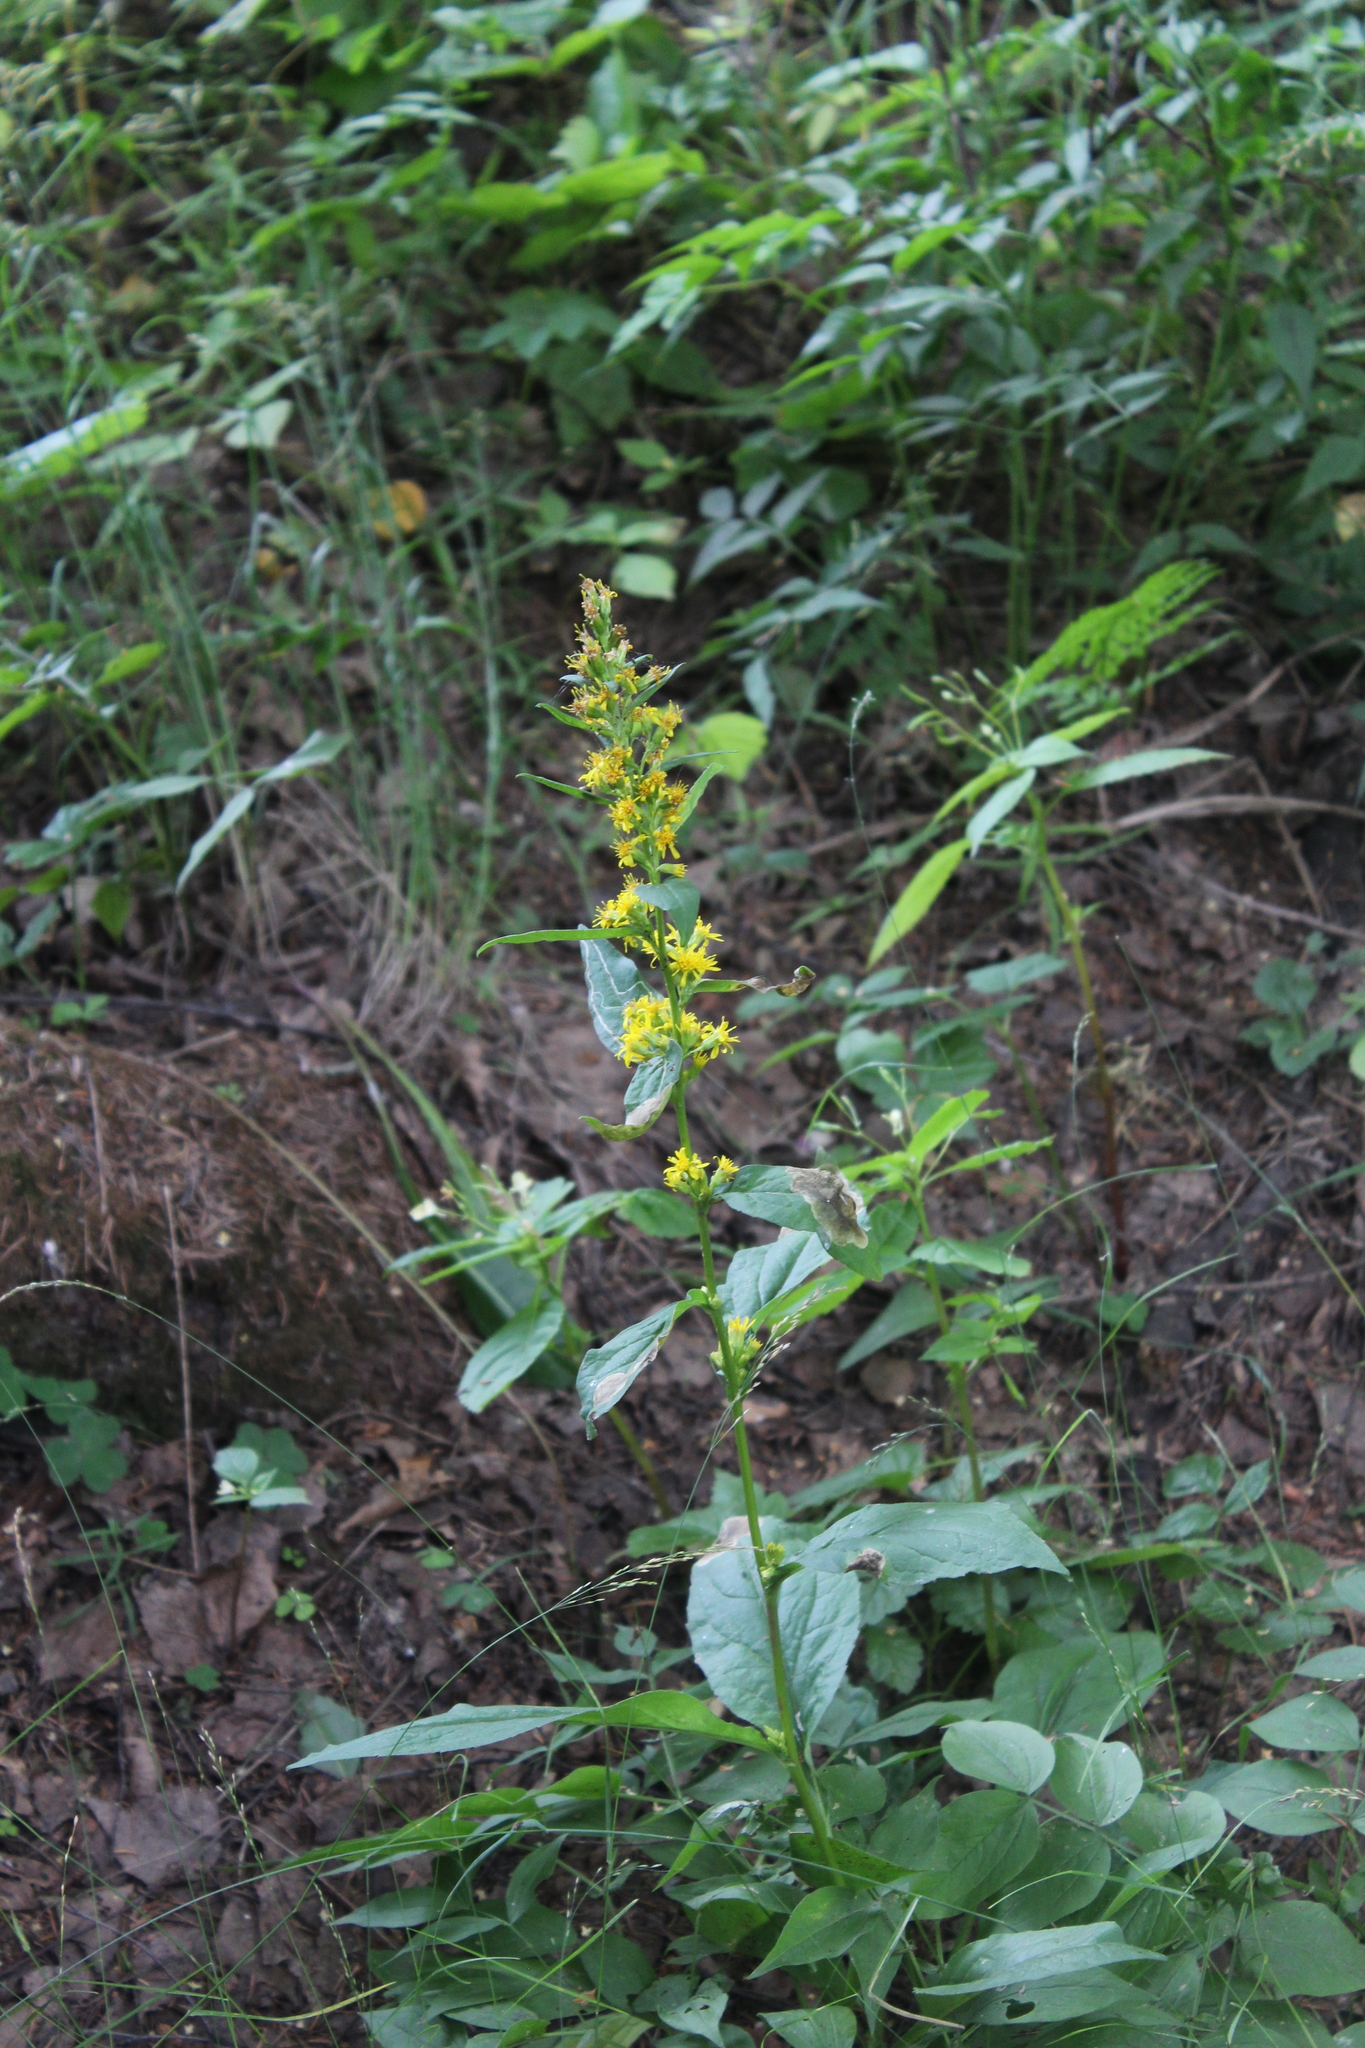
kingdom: Plantae
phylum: Tracheophyta
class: Magnoliopsida
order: Asterales
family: Asteraceae
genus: Solidago
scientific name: Solidago virgaurea
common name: Goldenrod
